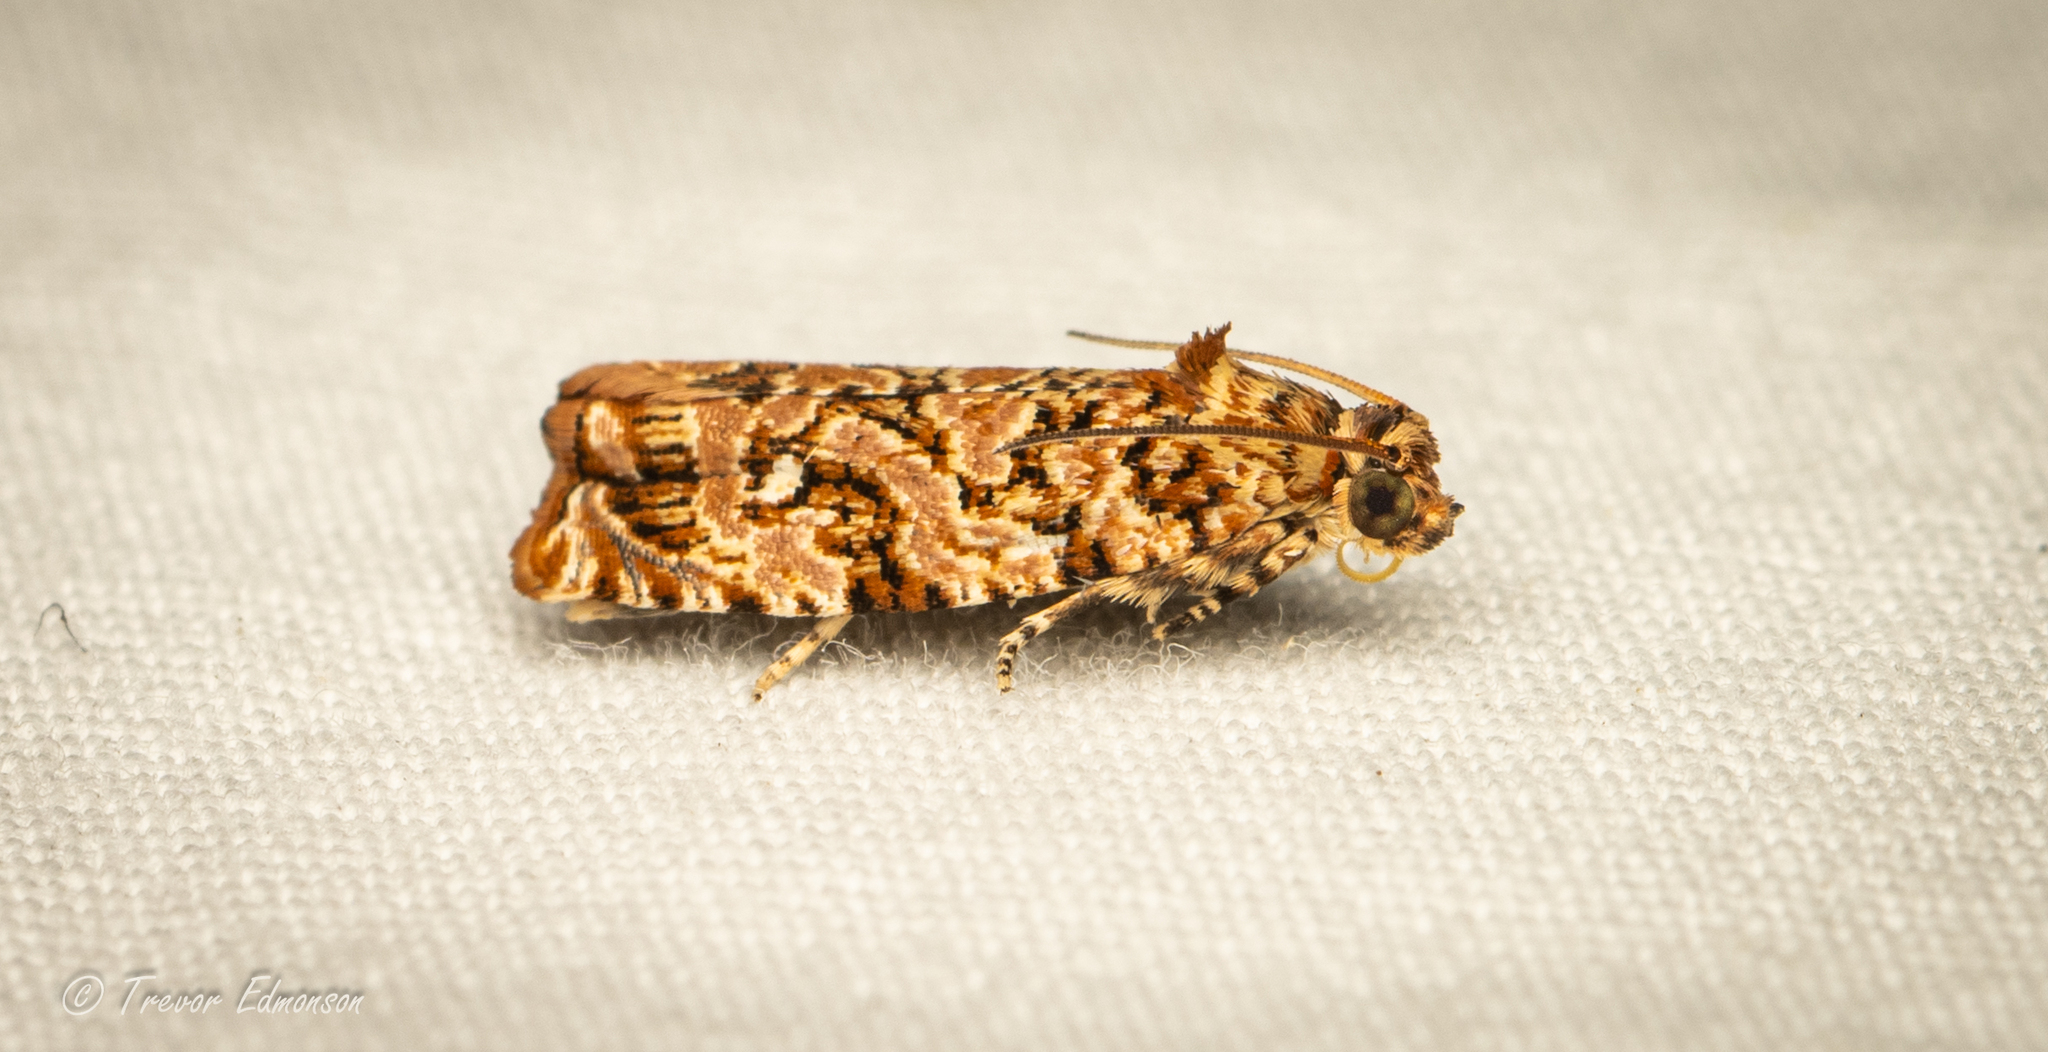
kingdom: Animalia
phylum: Arthropoda
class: Insecta
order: Lepidoptera
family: Tortricidae
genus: Phaecasiophora
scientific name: Phaecasiophora niveiguttana
